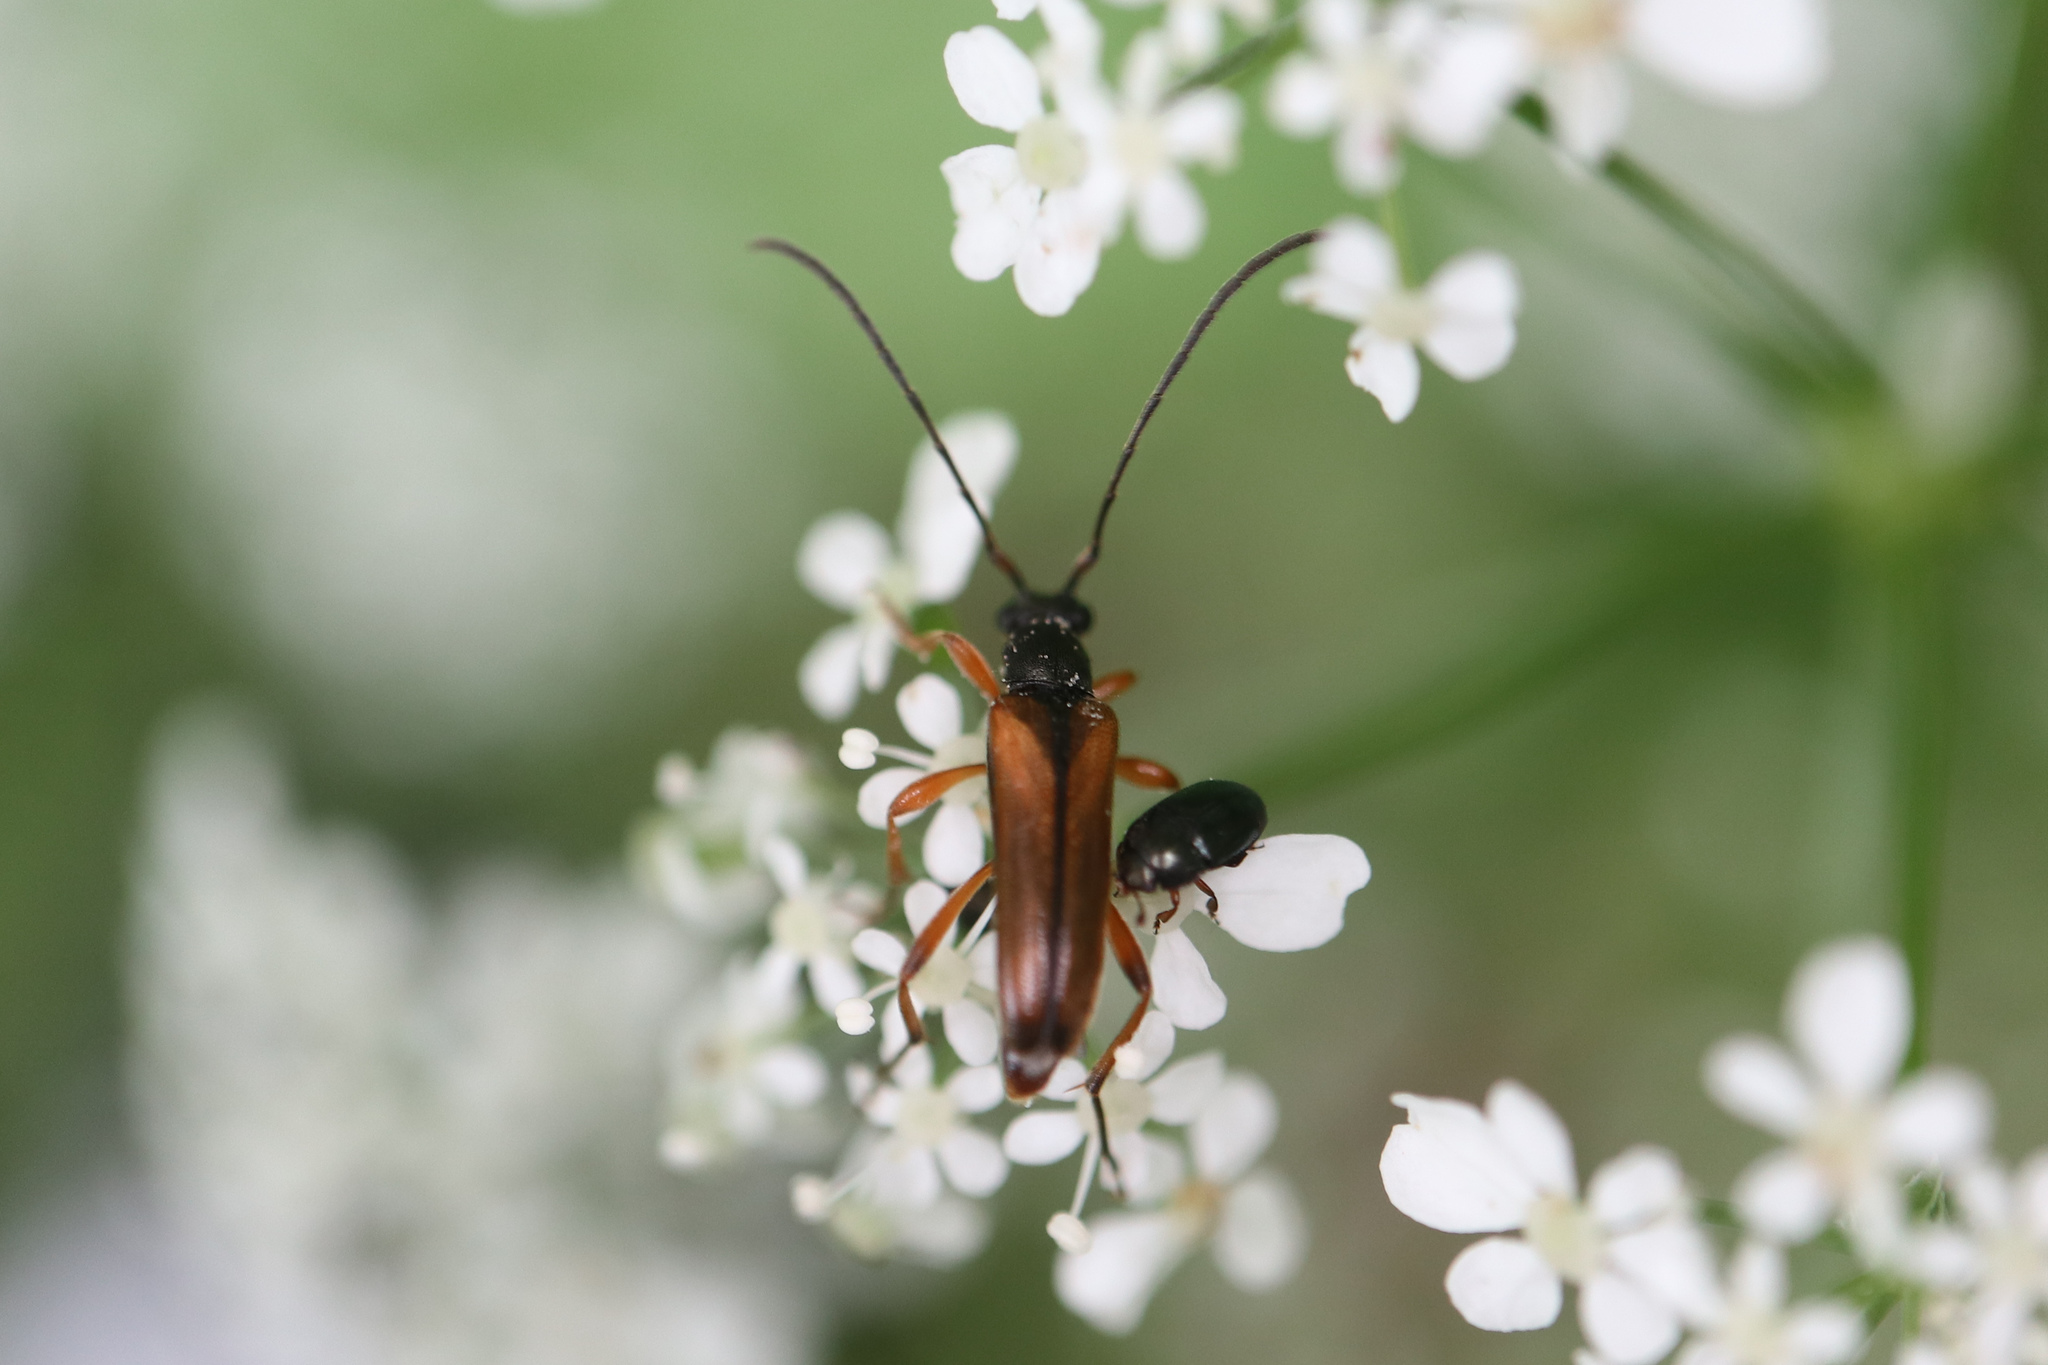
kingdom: Animalia
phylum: Arthropoda
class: Insecta
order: Coleoptera
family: Cerambycidae
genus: Alosterna
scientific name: Alosterna tabacicolor
